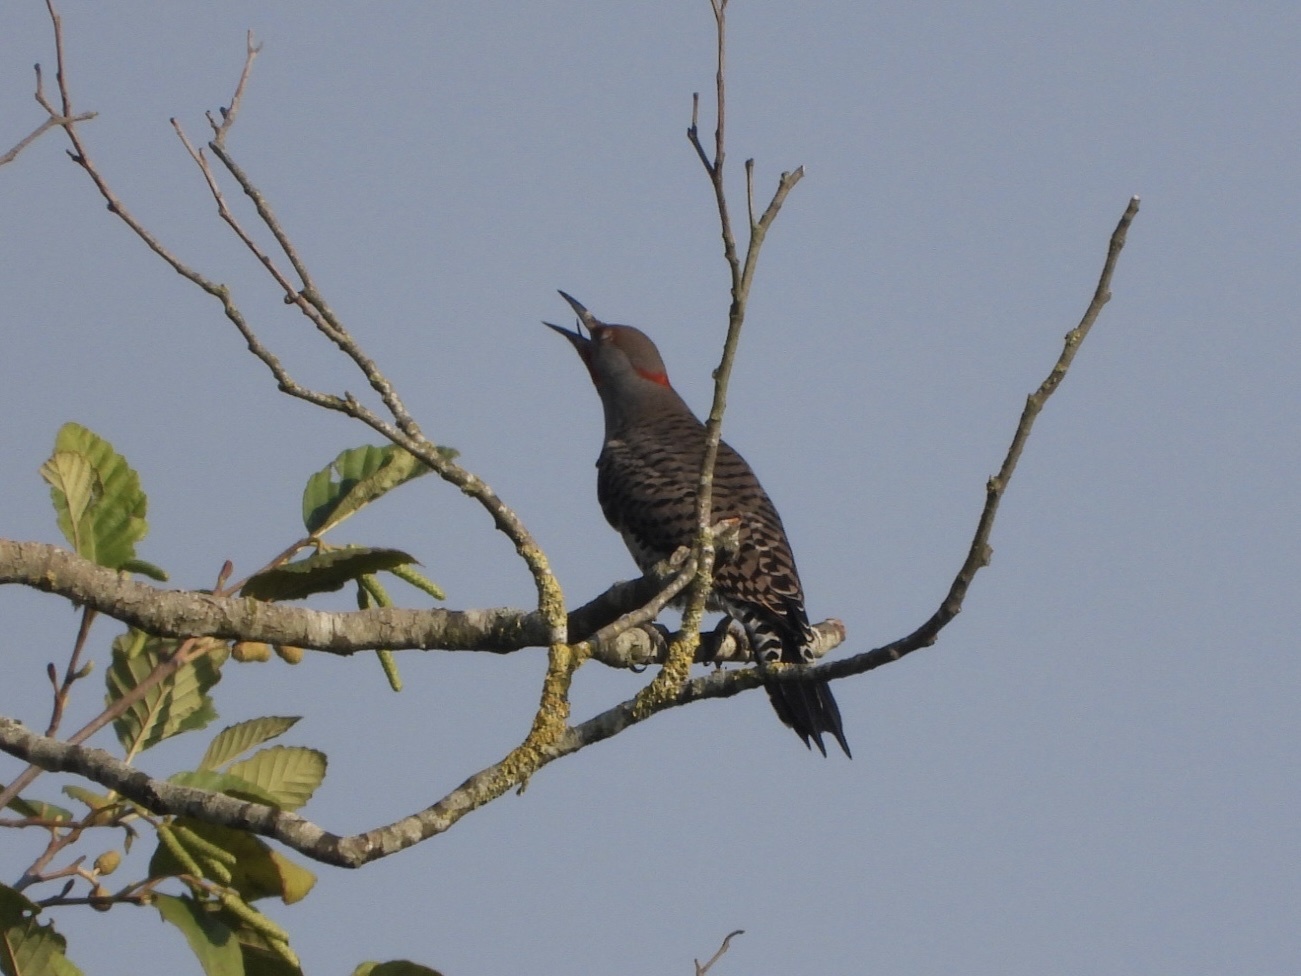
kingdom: Animalia
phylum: Chordata
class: Aves
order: Piciformes
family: Picidae
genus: Colaptes
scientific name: Colaptes
